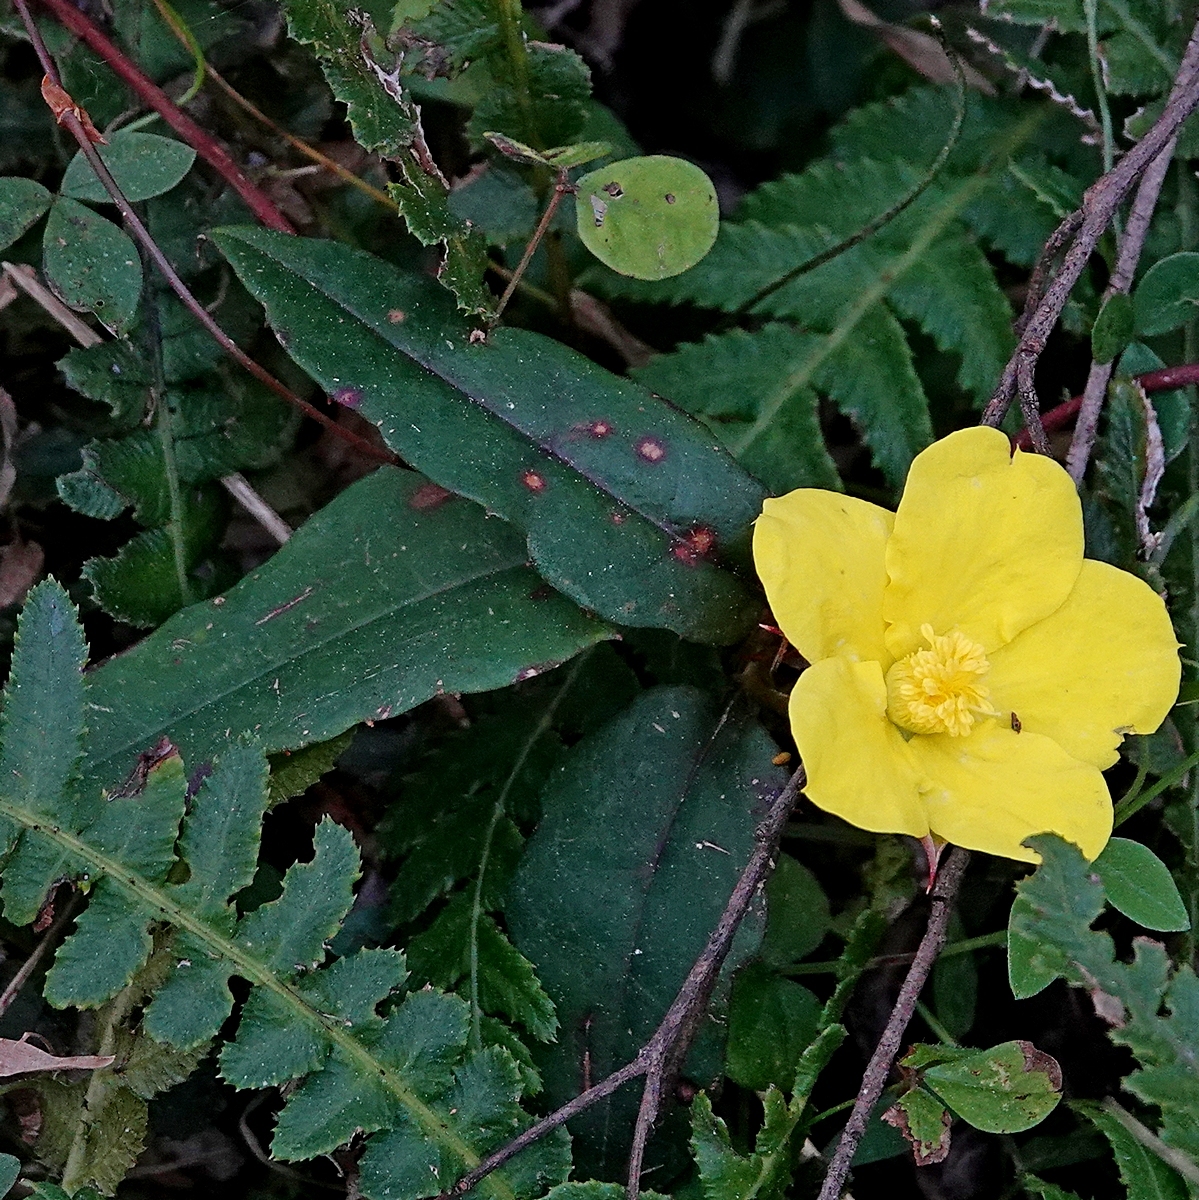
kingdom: Plantae
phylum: Tracheophyta
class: Magnoliopsida
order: Dilleniales
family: Dilleniaceae
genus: Hibbertia
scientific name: Hibbertia dentata
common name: Trailing guinea-flower
